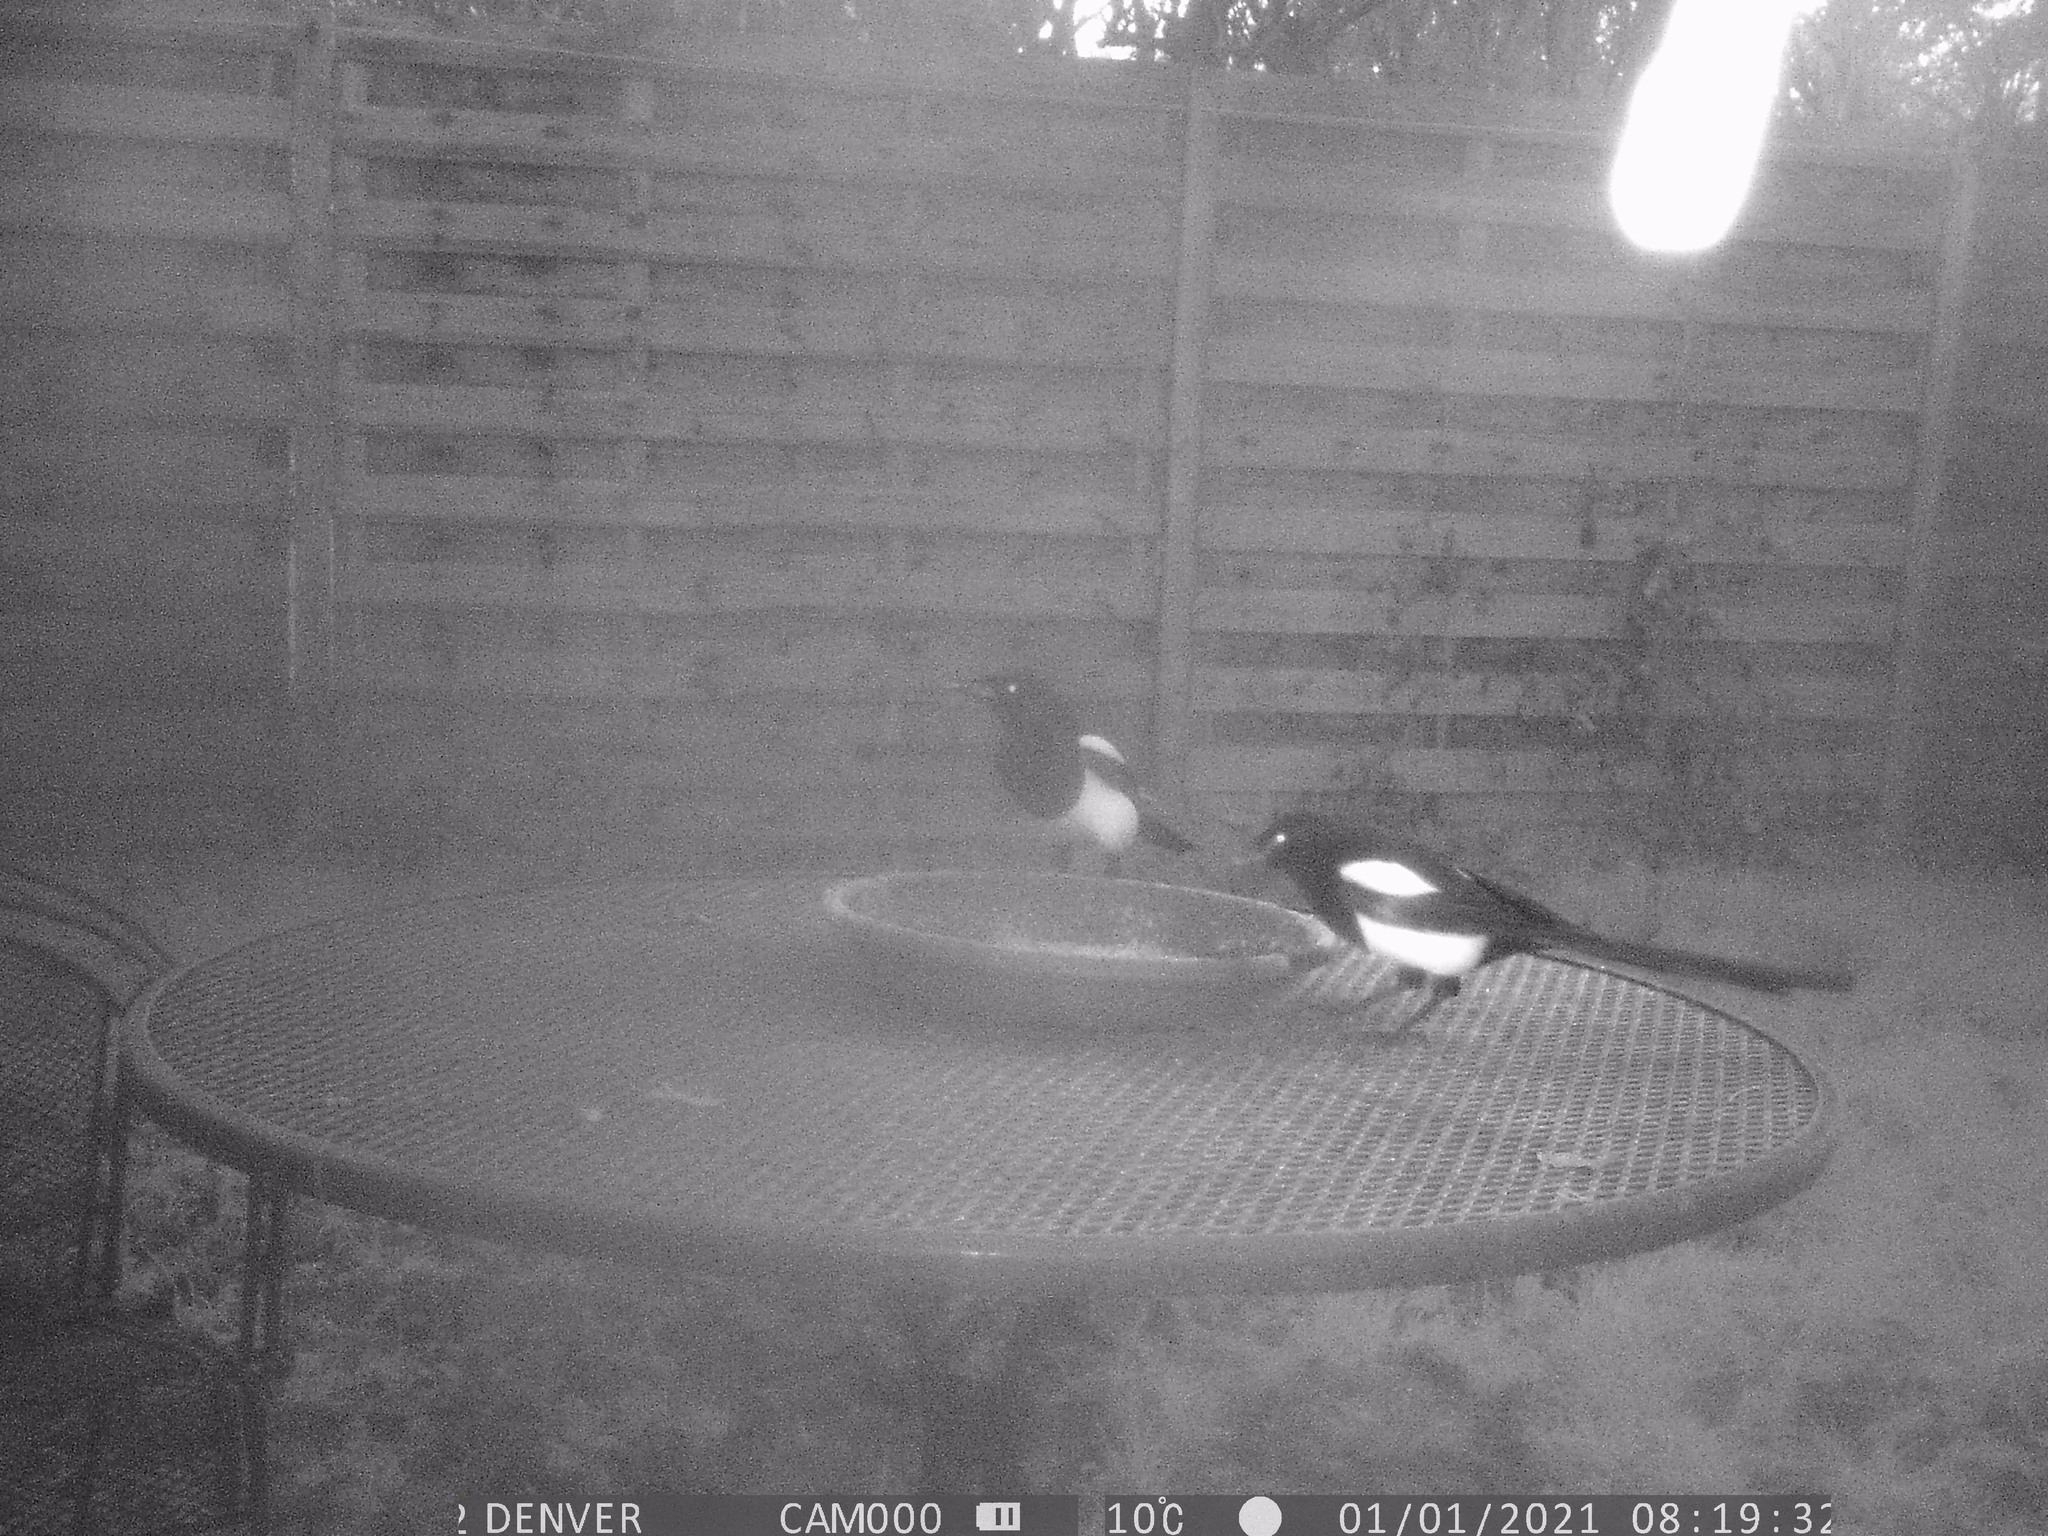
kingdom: Animalia
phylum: Chordata
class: Aves
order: Passeriformes
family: Corvidae
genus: Pica
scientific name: Pica pica
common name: Eurasian magpie
